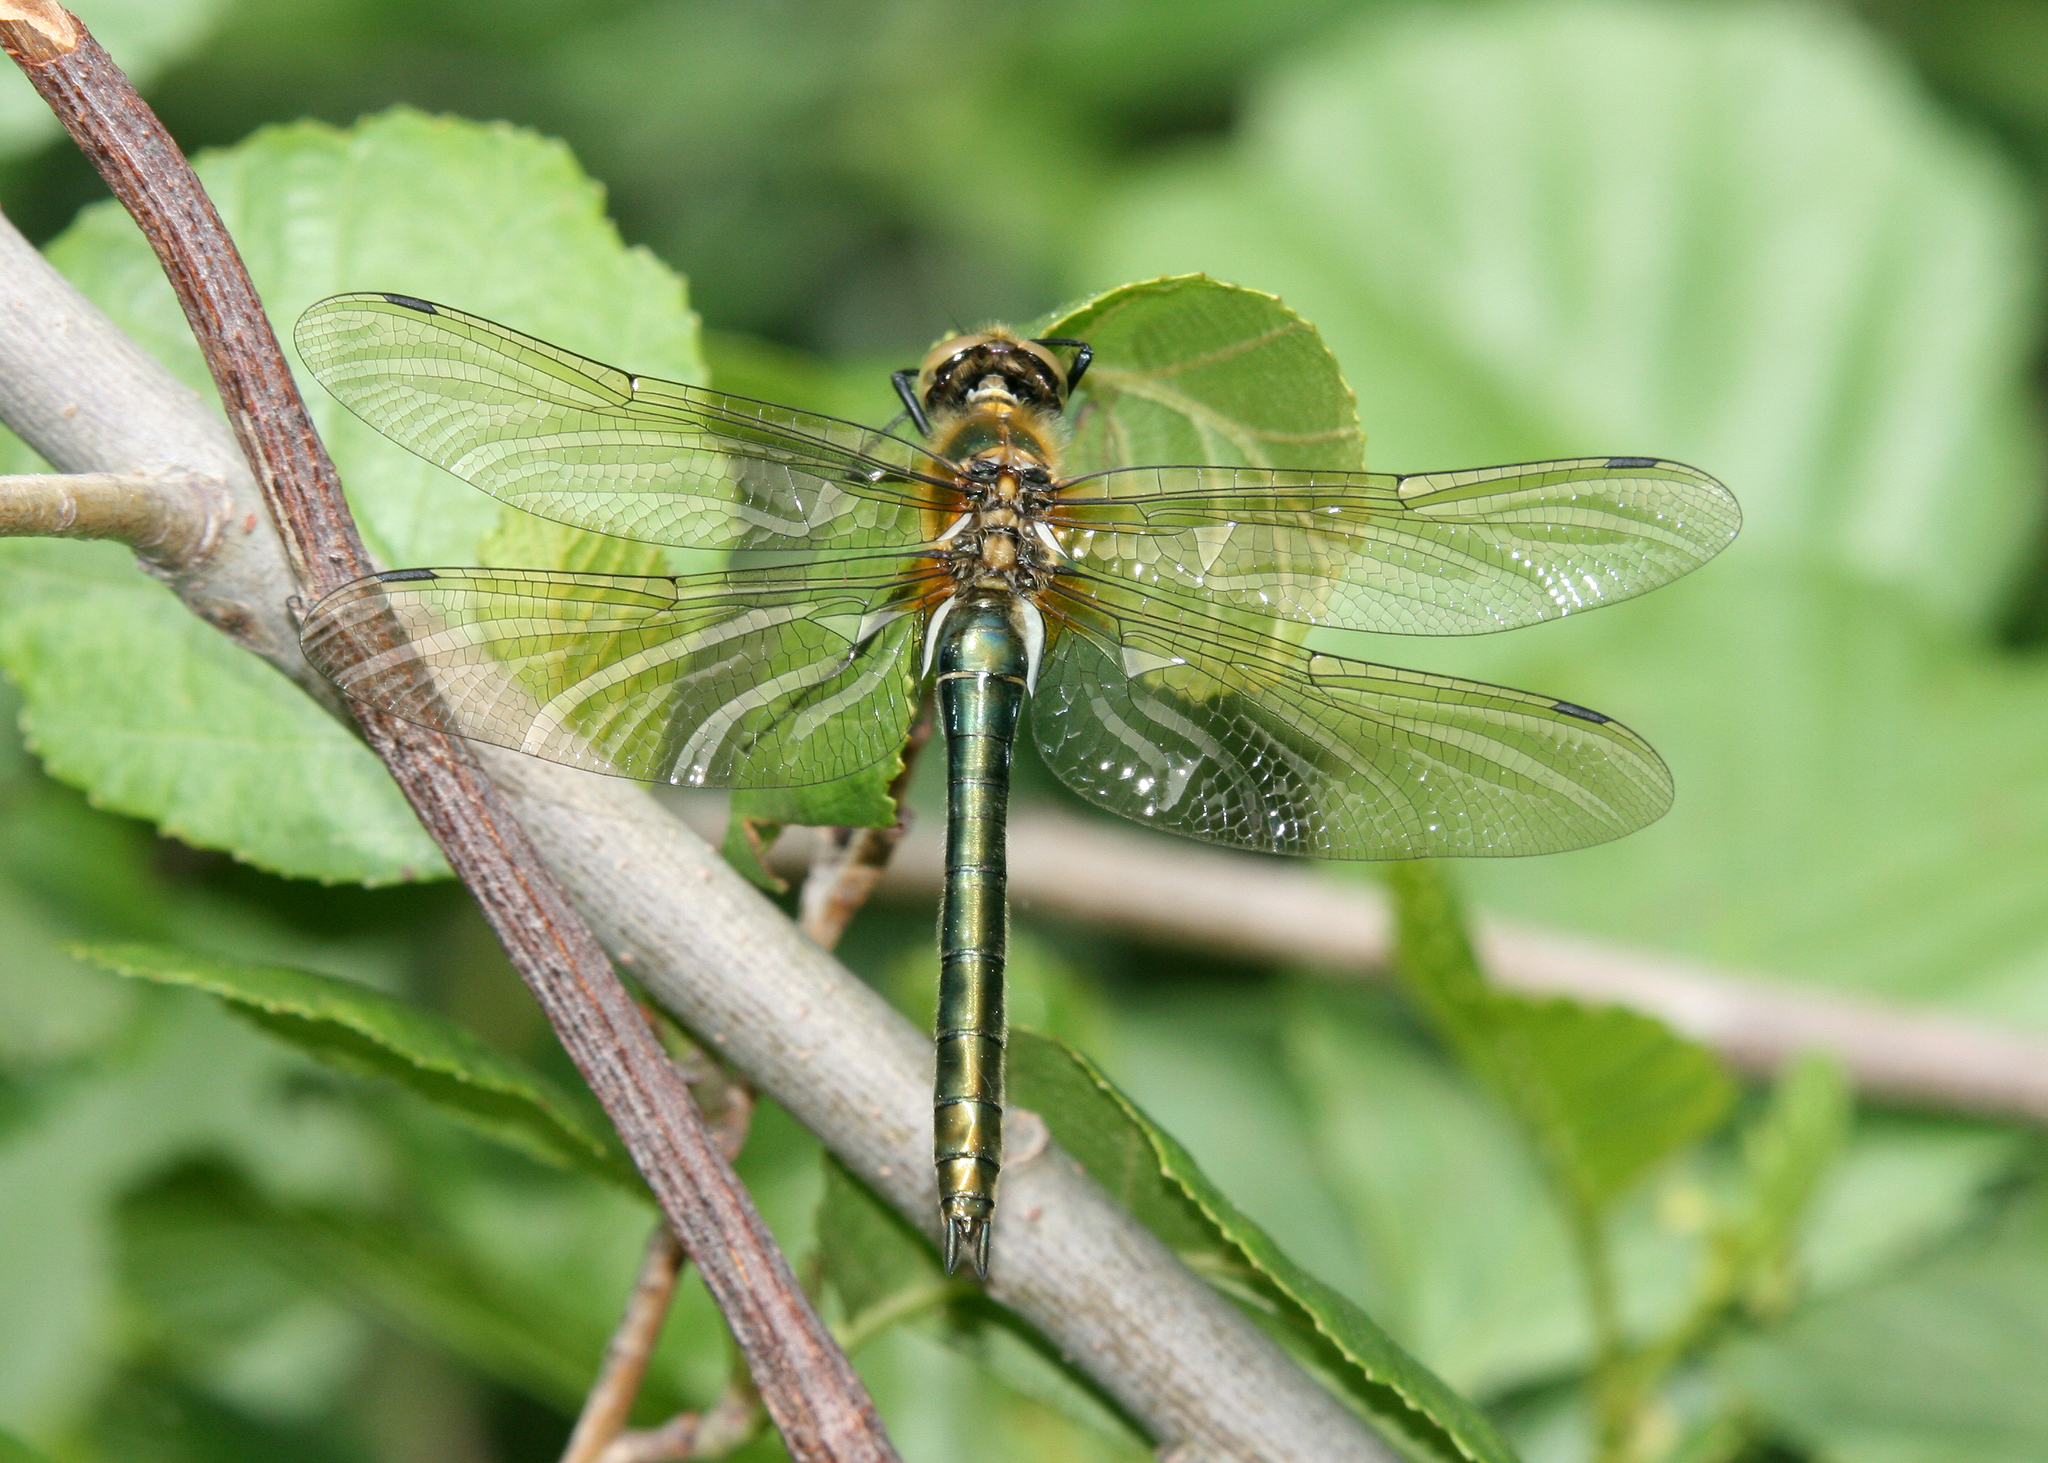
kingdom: Animalia
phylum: Arthropoda
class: Insecta
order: Odonata
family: Corduliidae
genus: Cordulia
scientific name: Cordulia aenea
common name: Downy emerald
